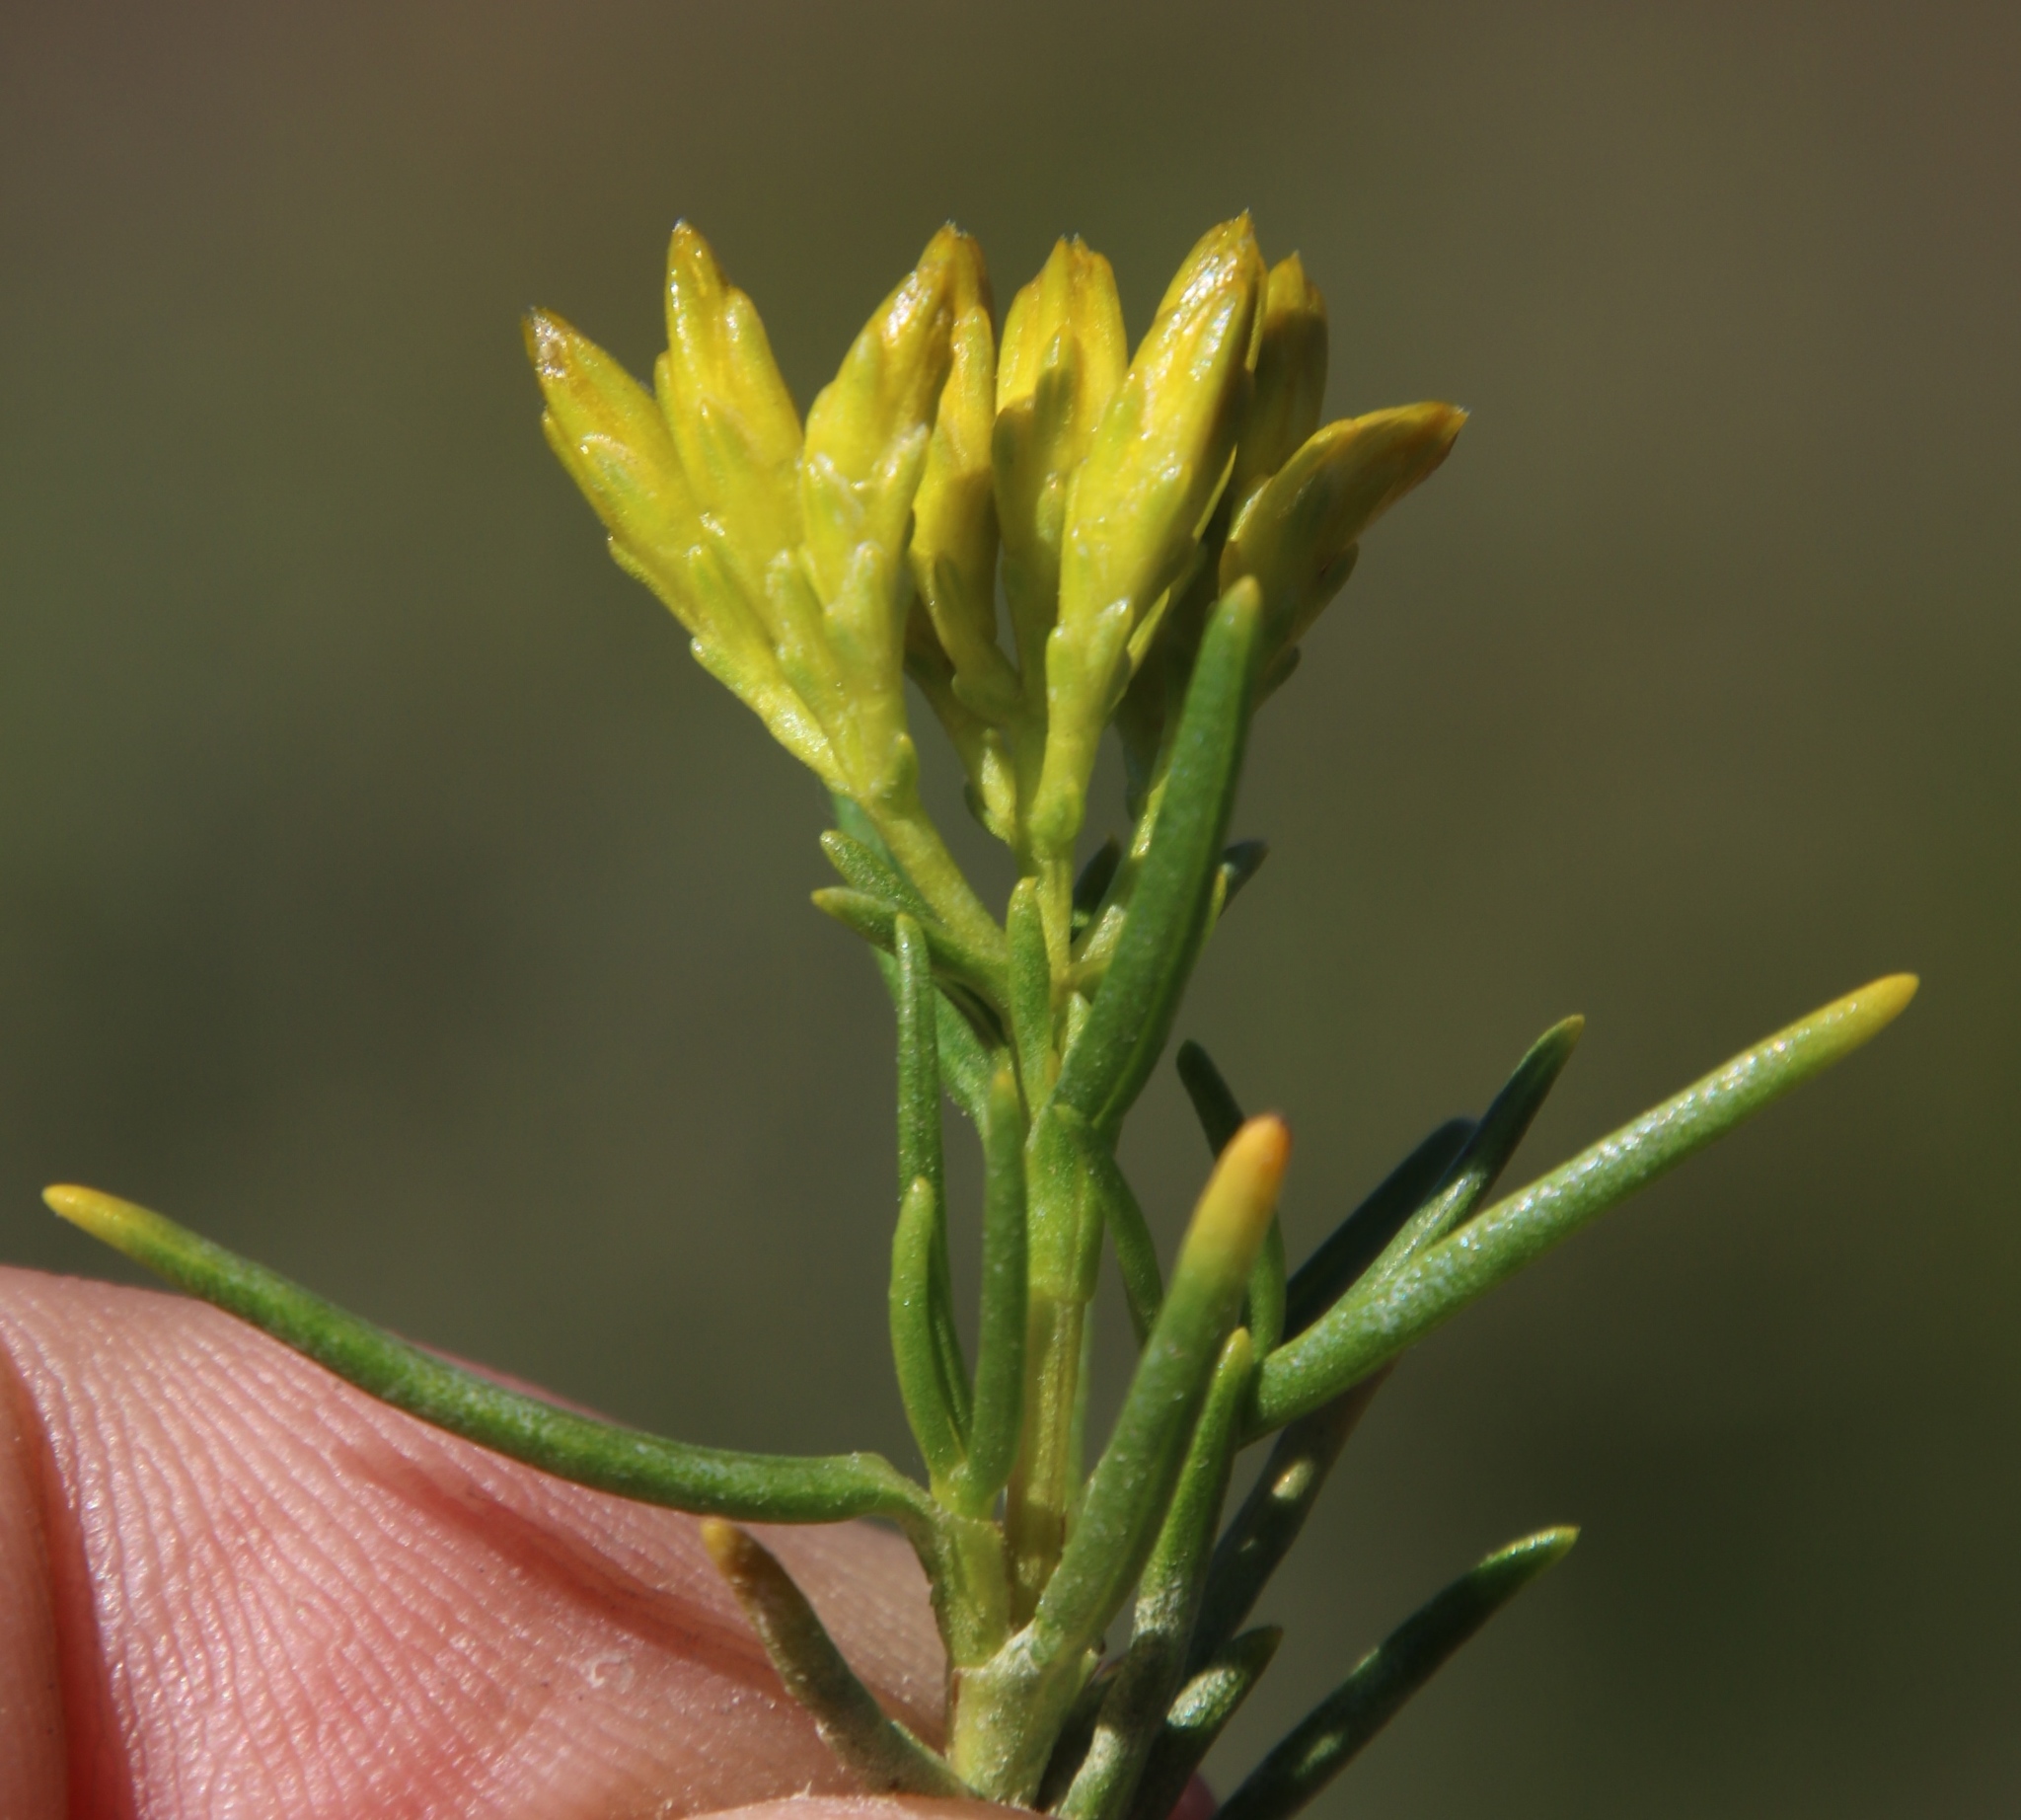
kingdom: Plantae
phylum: Tracheophyta
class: Magnoliopsida
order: Asterales
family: Asteraceae
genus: Pteronia
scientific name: Pteronia paniculata
